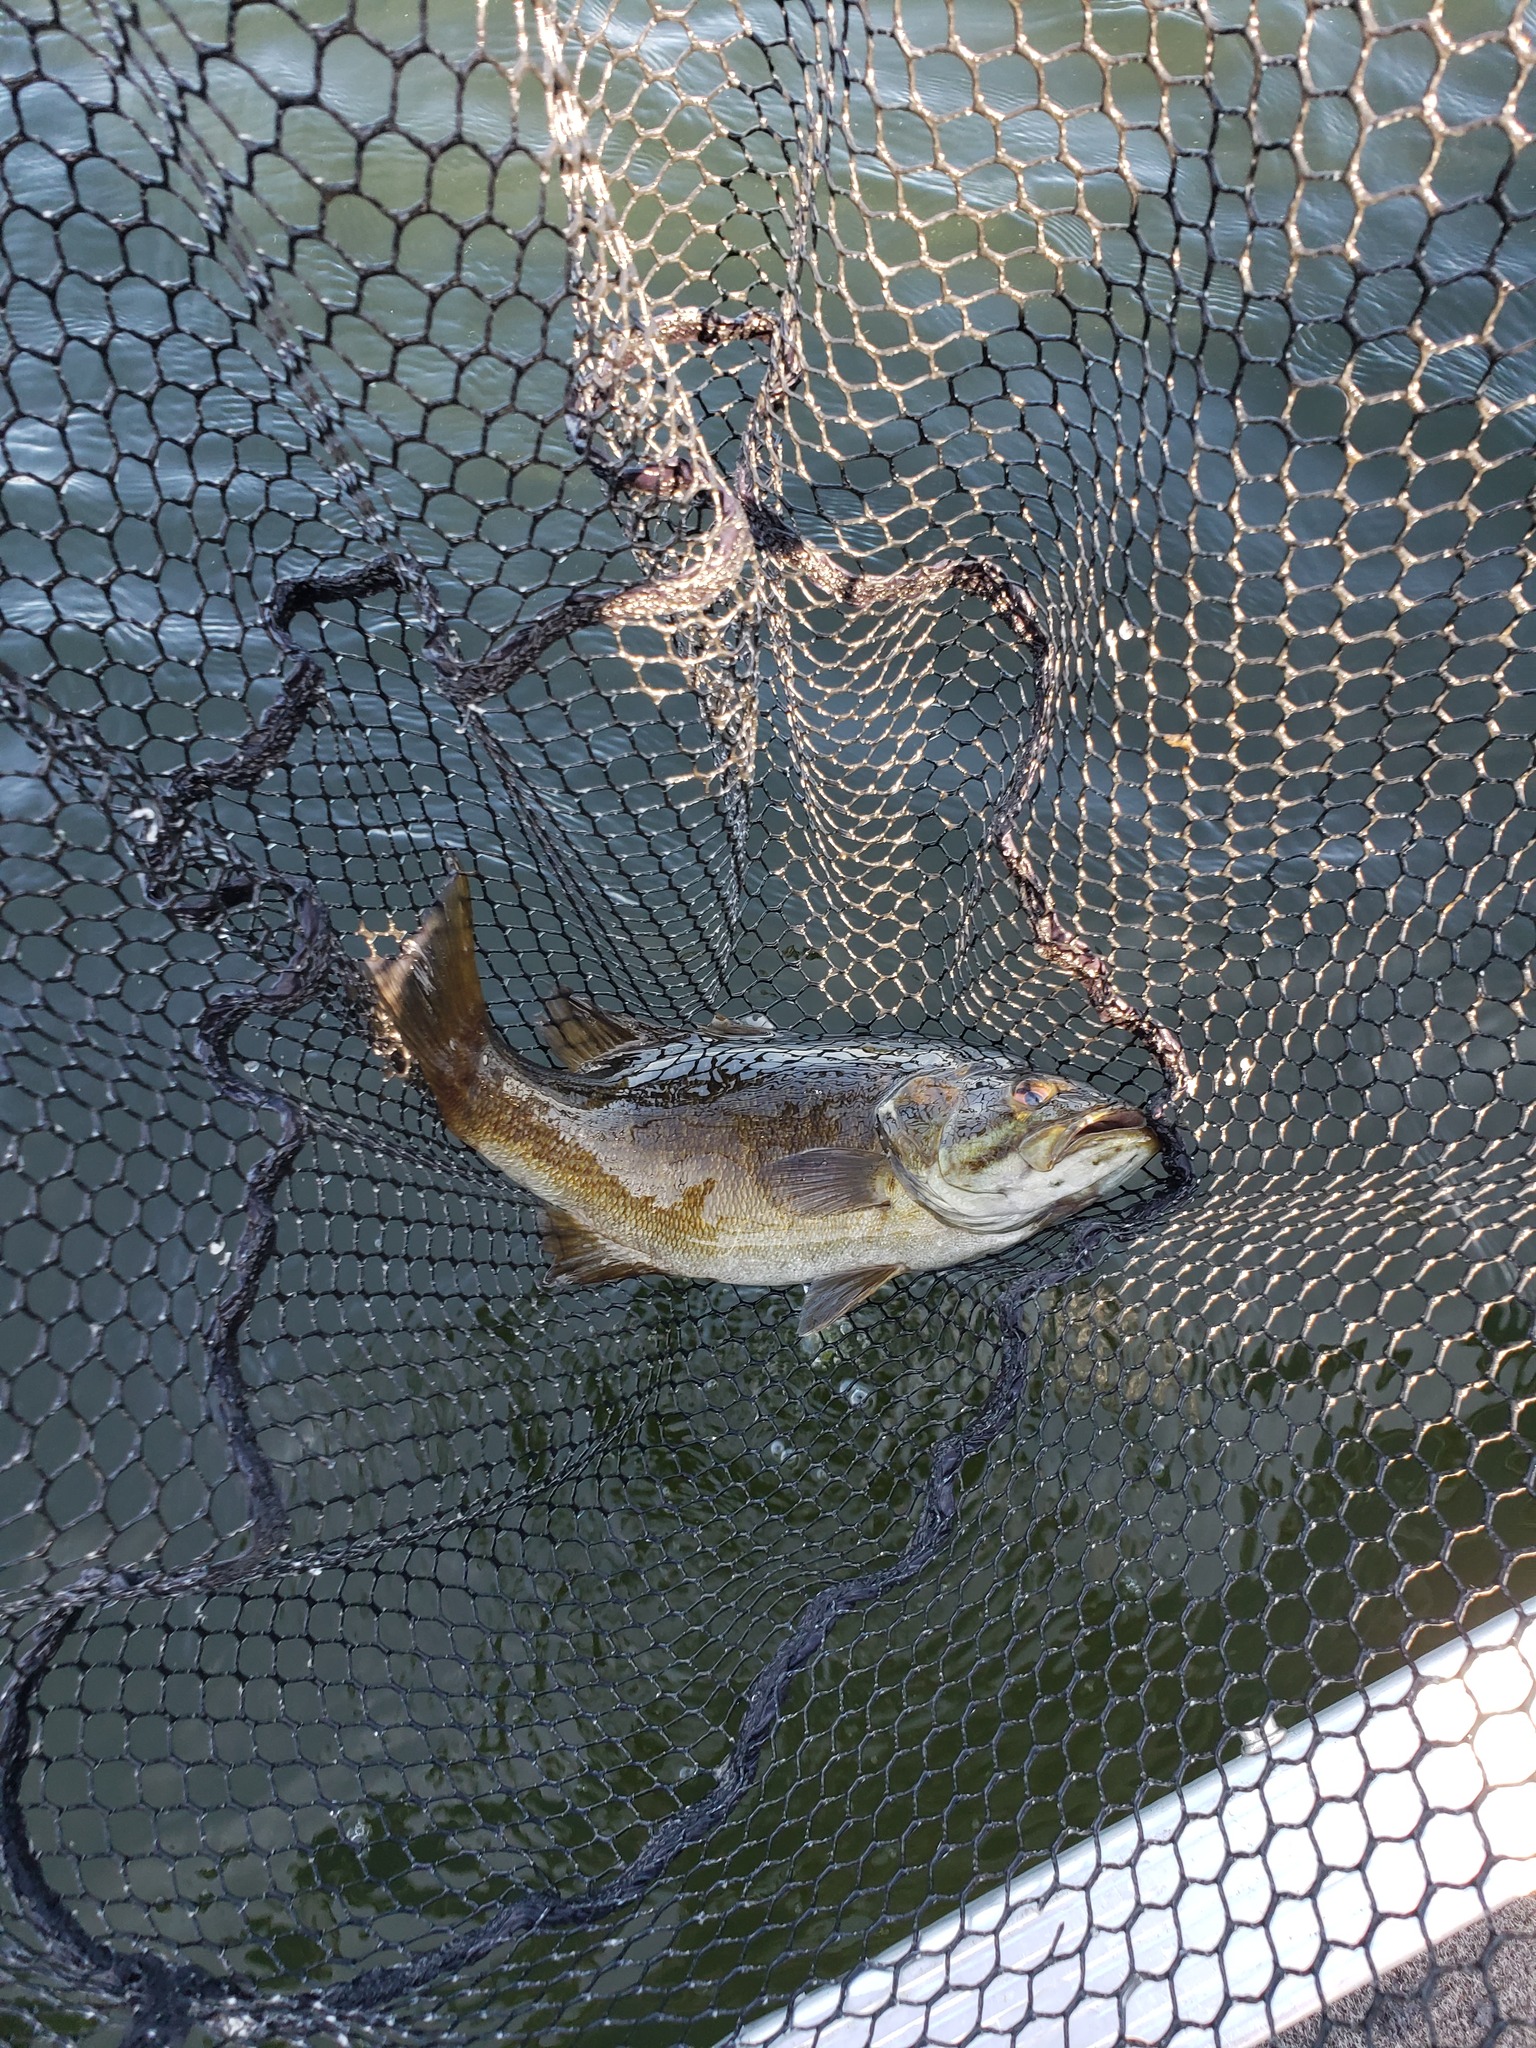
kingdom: Animalia
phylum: Chordata
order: Perciformes
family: Centrarchidae
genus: Micropterus
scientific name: Micropterus dolomieu
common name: Smallmouth bass
